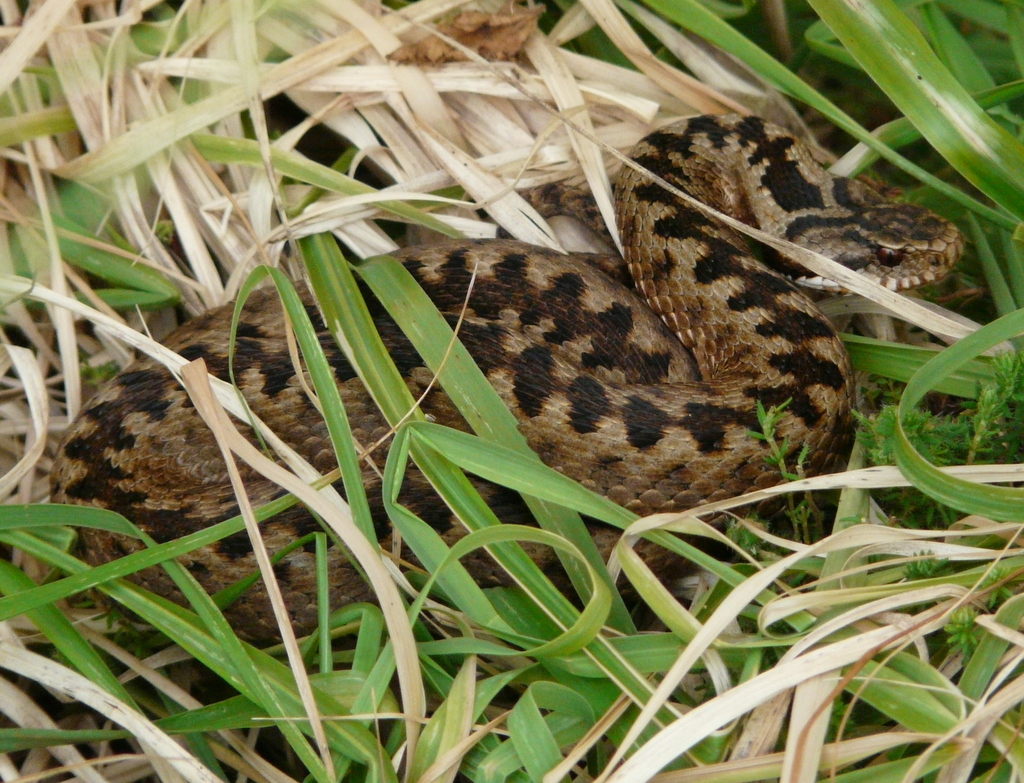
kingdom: Animalia
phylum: Chordata
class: Squamata
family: Viperidae
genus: Vipera
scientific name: Vipera berus
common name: Adder
